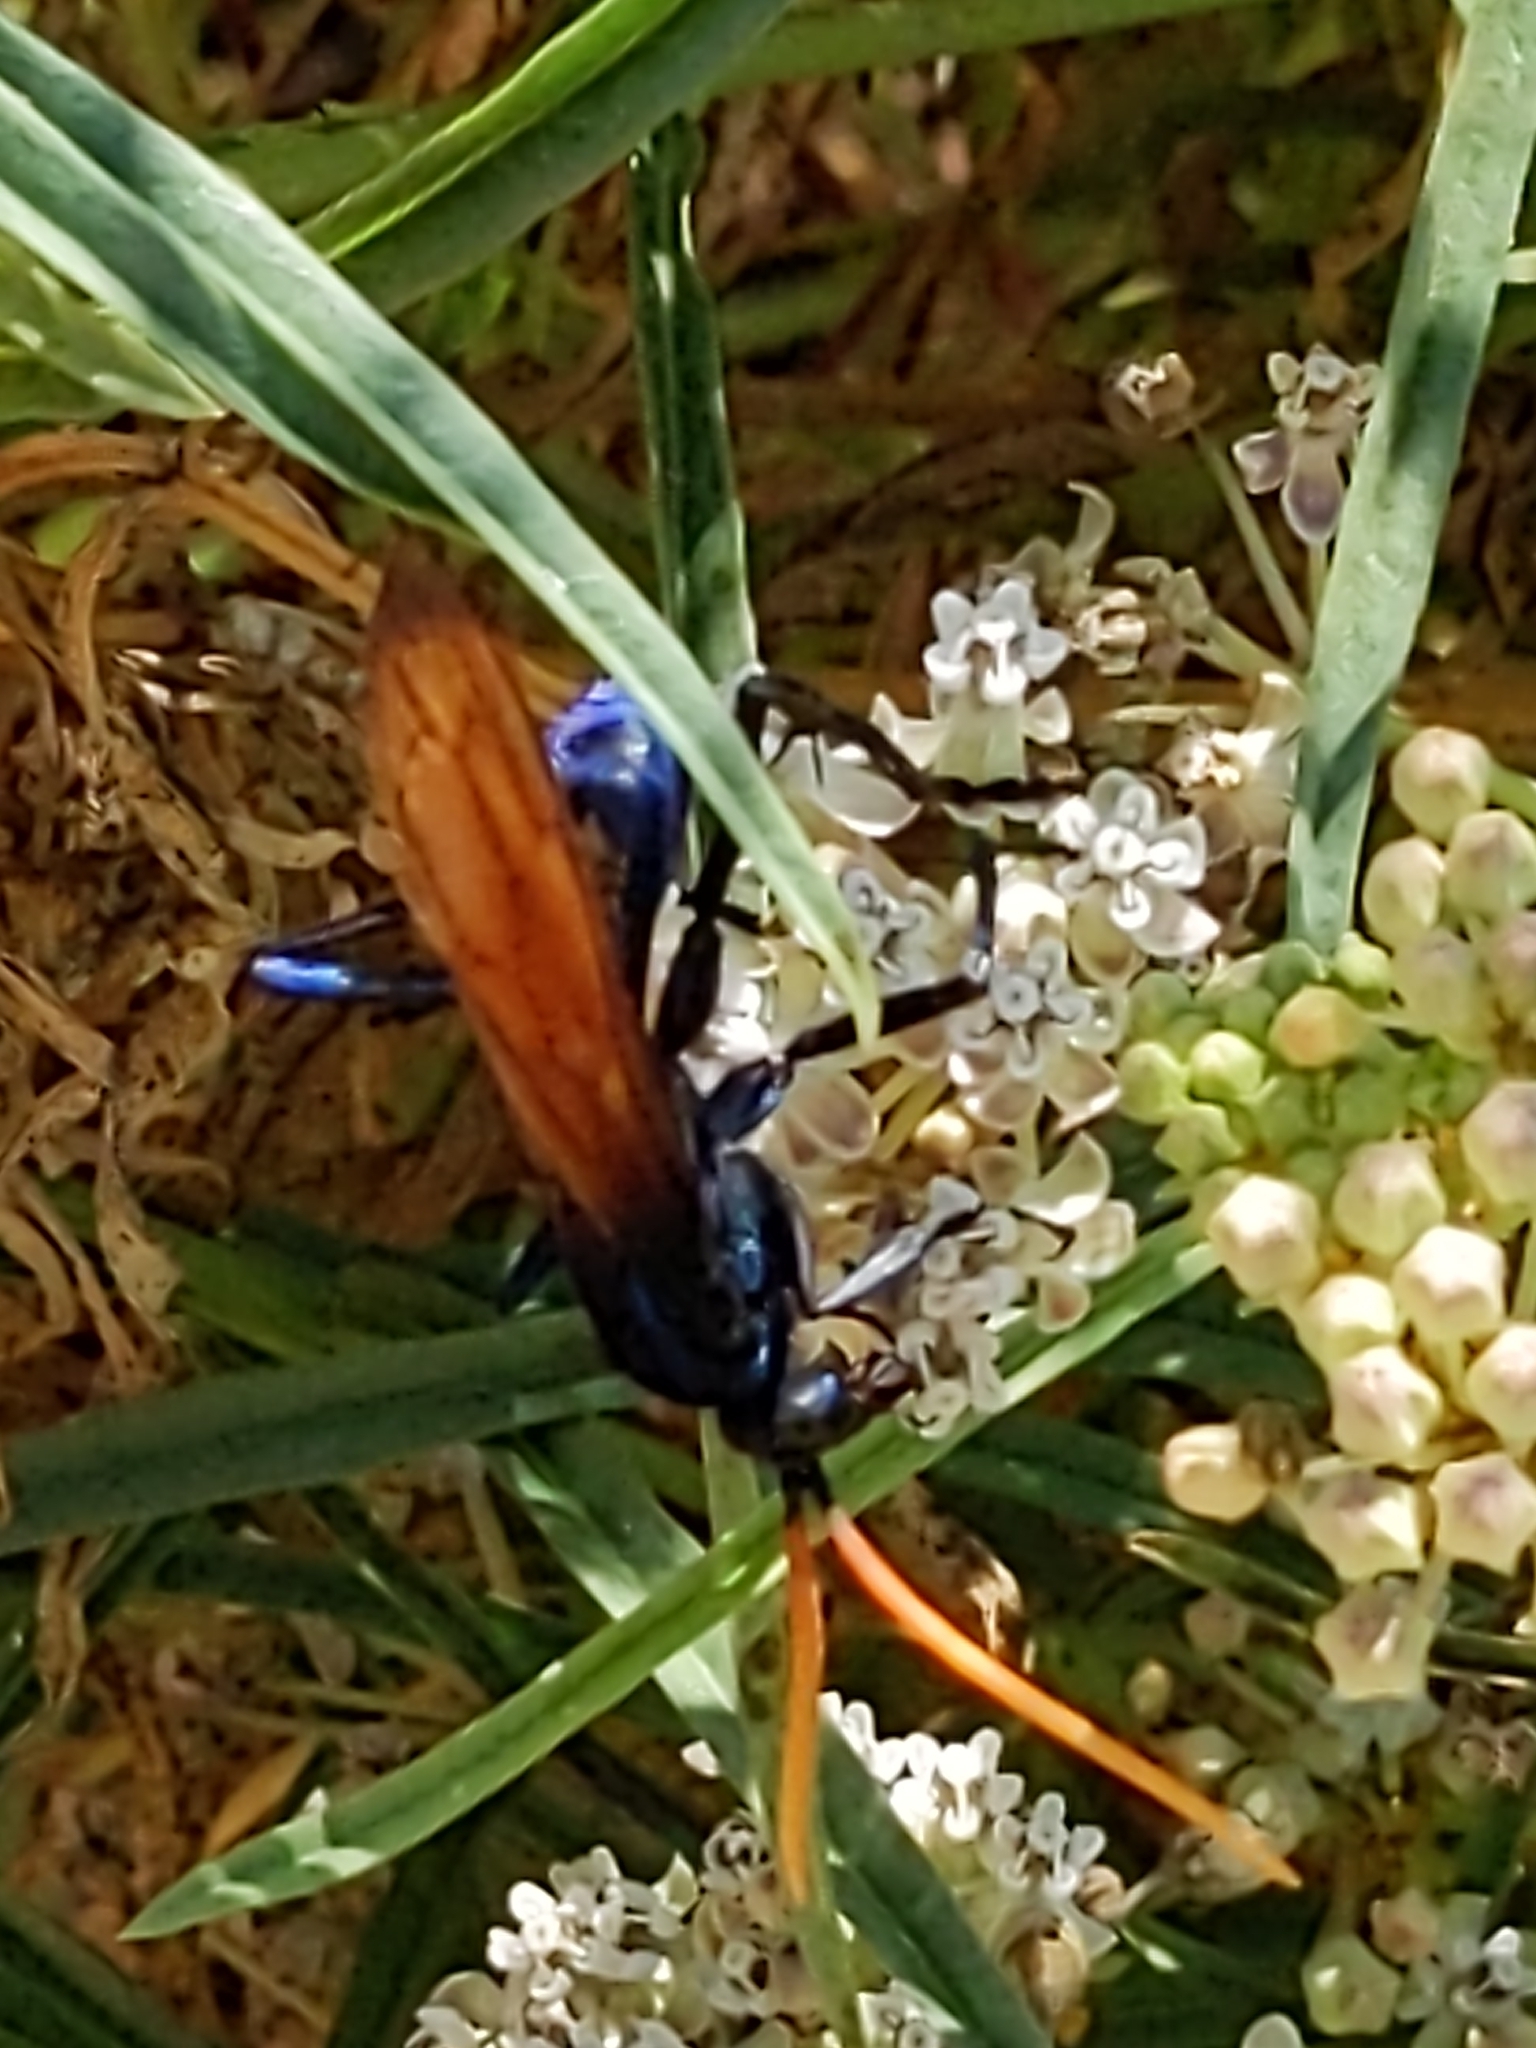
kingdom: Animalia
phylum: Arthropoda
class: Insecta
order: Hymenoptera
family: Pompilidae
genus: Pepsis
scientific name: Pepsis mildei
